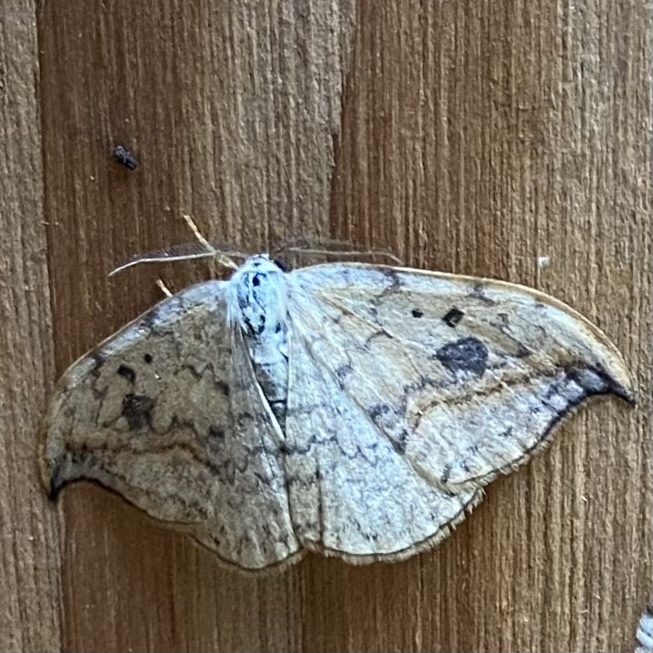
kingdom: Animalia
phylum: Arthropoda
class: Insecta
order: Lepidoptera
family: Drepanidae
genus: Drepana
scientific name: Drepana falcataria
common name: Pebble hook-tip
